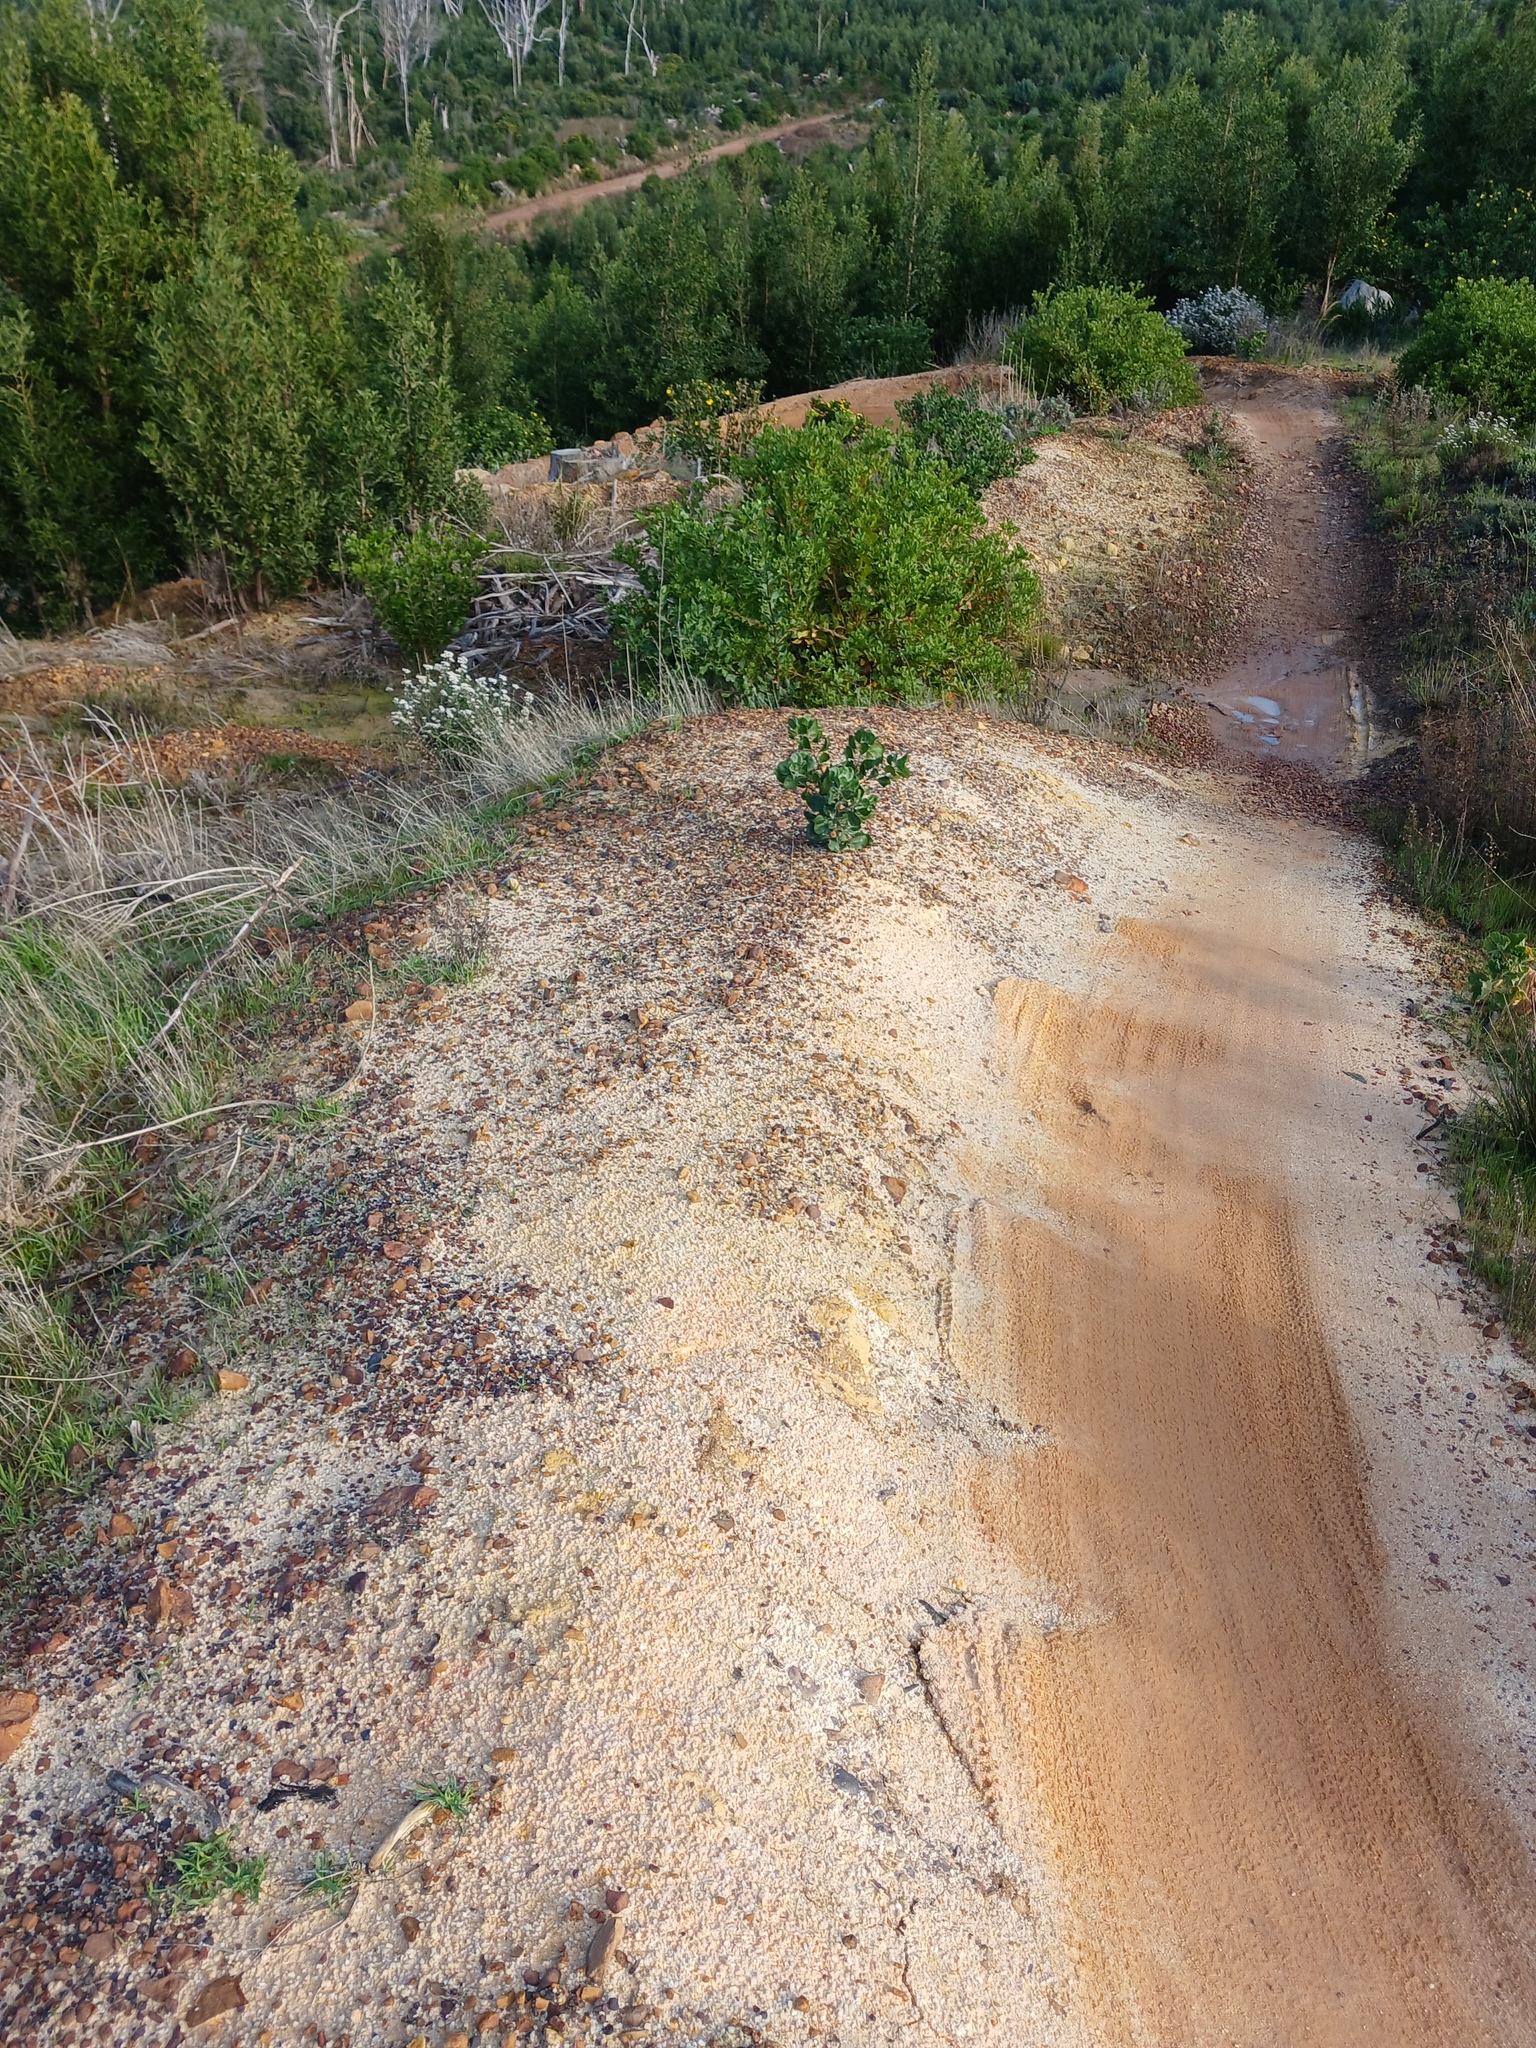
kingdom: Plantae
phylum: Tracheophyta
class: Magnoliopsida
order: Asterales
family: Asteraceae
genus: Osteospermum
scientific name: Osteospermum moniliferum
